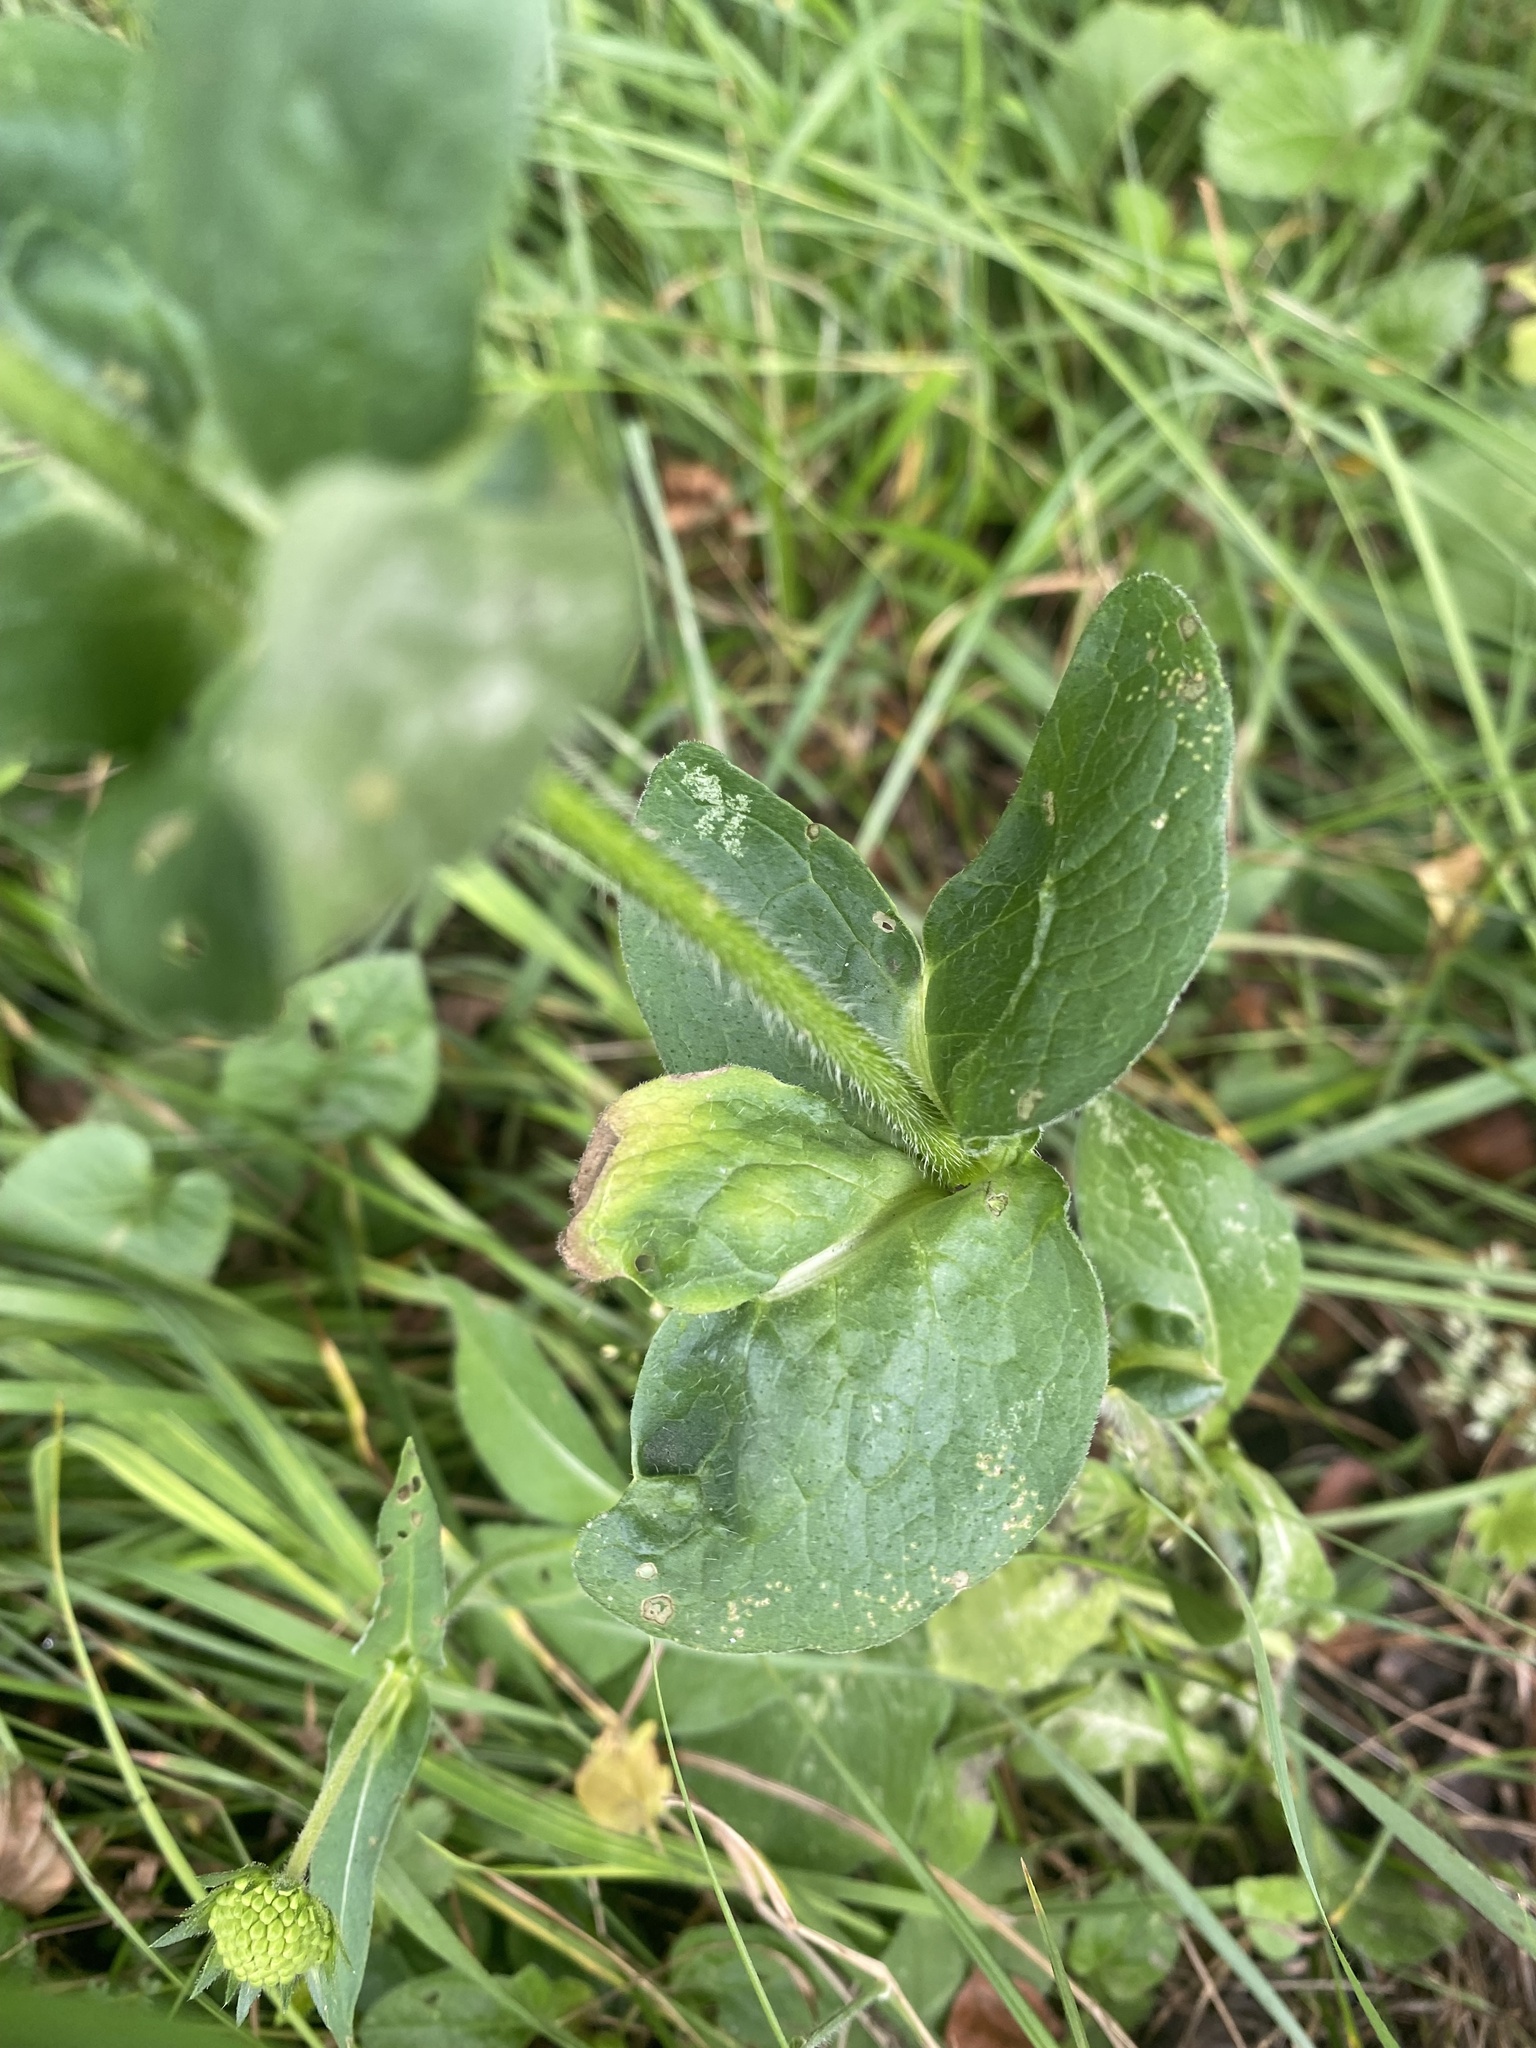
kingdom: Plantae
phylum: Tracheophyta
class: Magnoliopsida
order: Dipsacales
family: Caprifoliaceae
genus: Knautia
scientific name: Knautia involucrata
